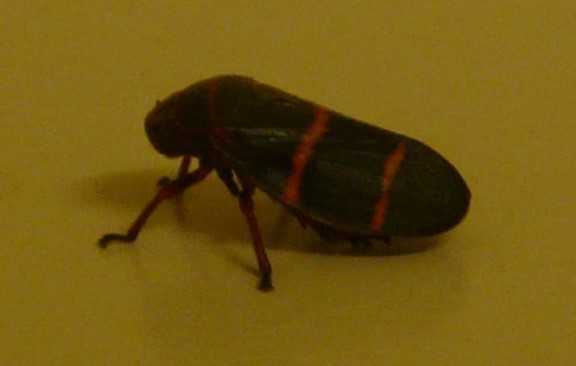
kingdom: Animalia
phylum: Arthropoda
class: Insecta
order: Hemiptera
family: Cercopidae
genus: Prosapia
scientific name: Prosapia bicincta
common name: Twolined spittlebug
